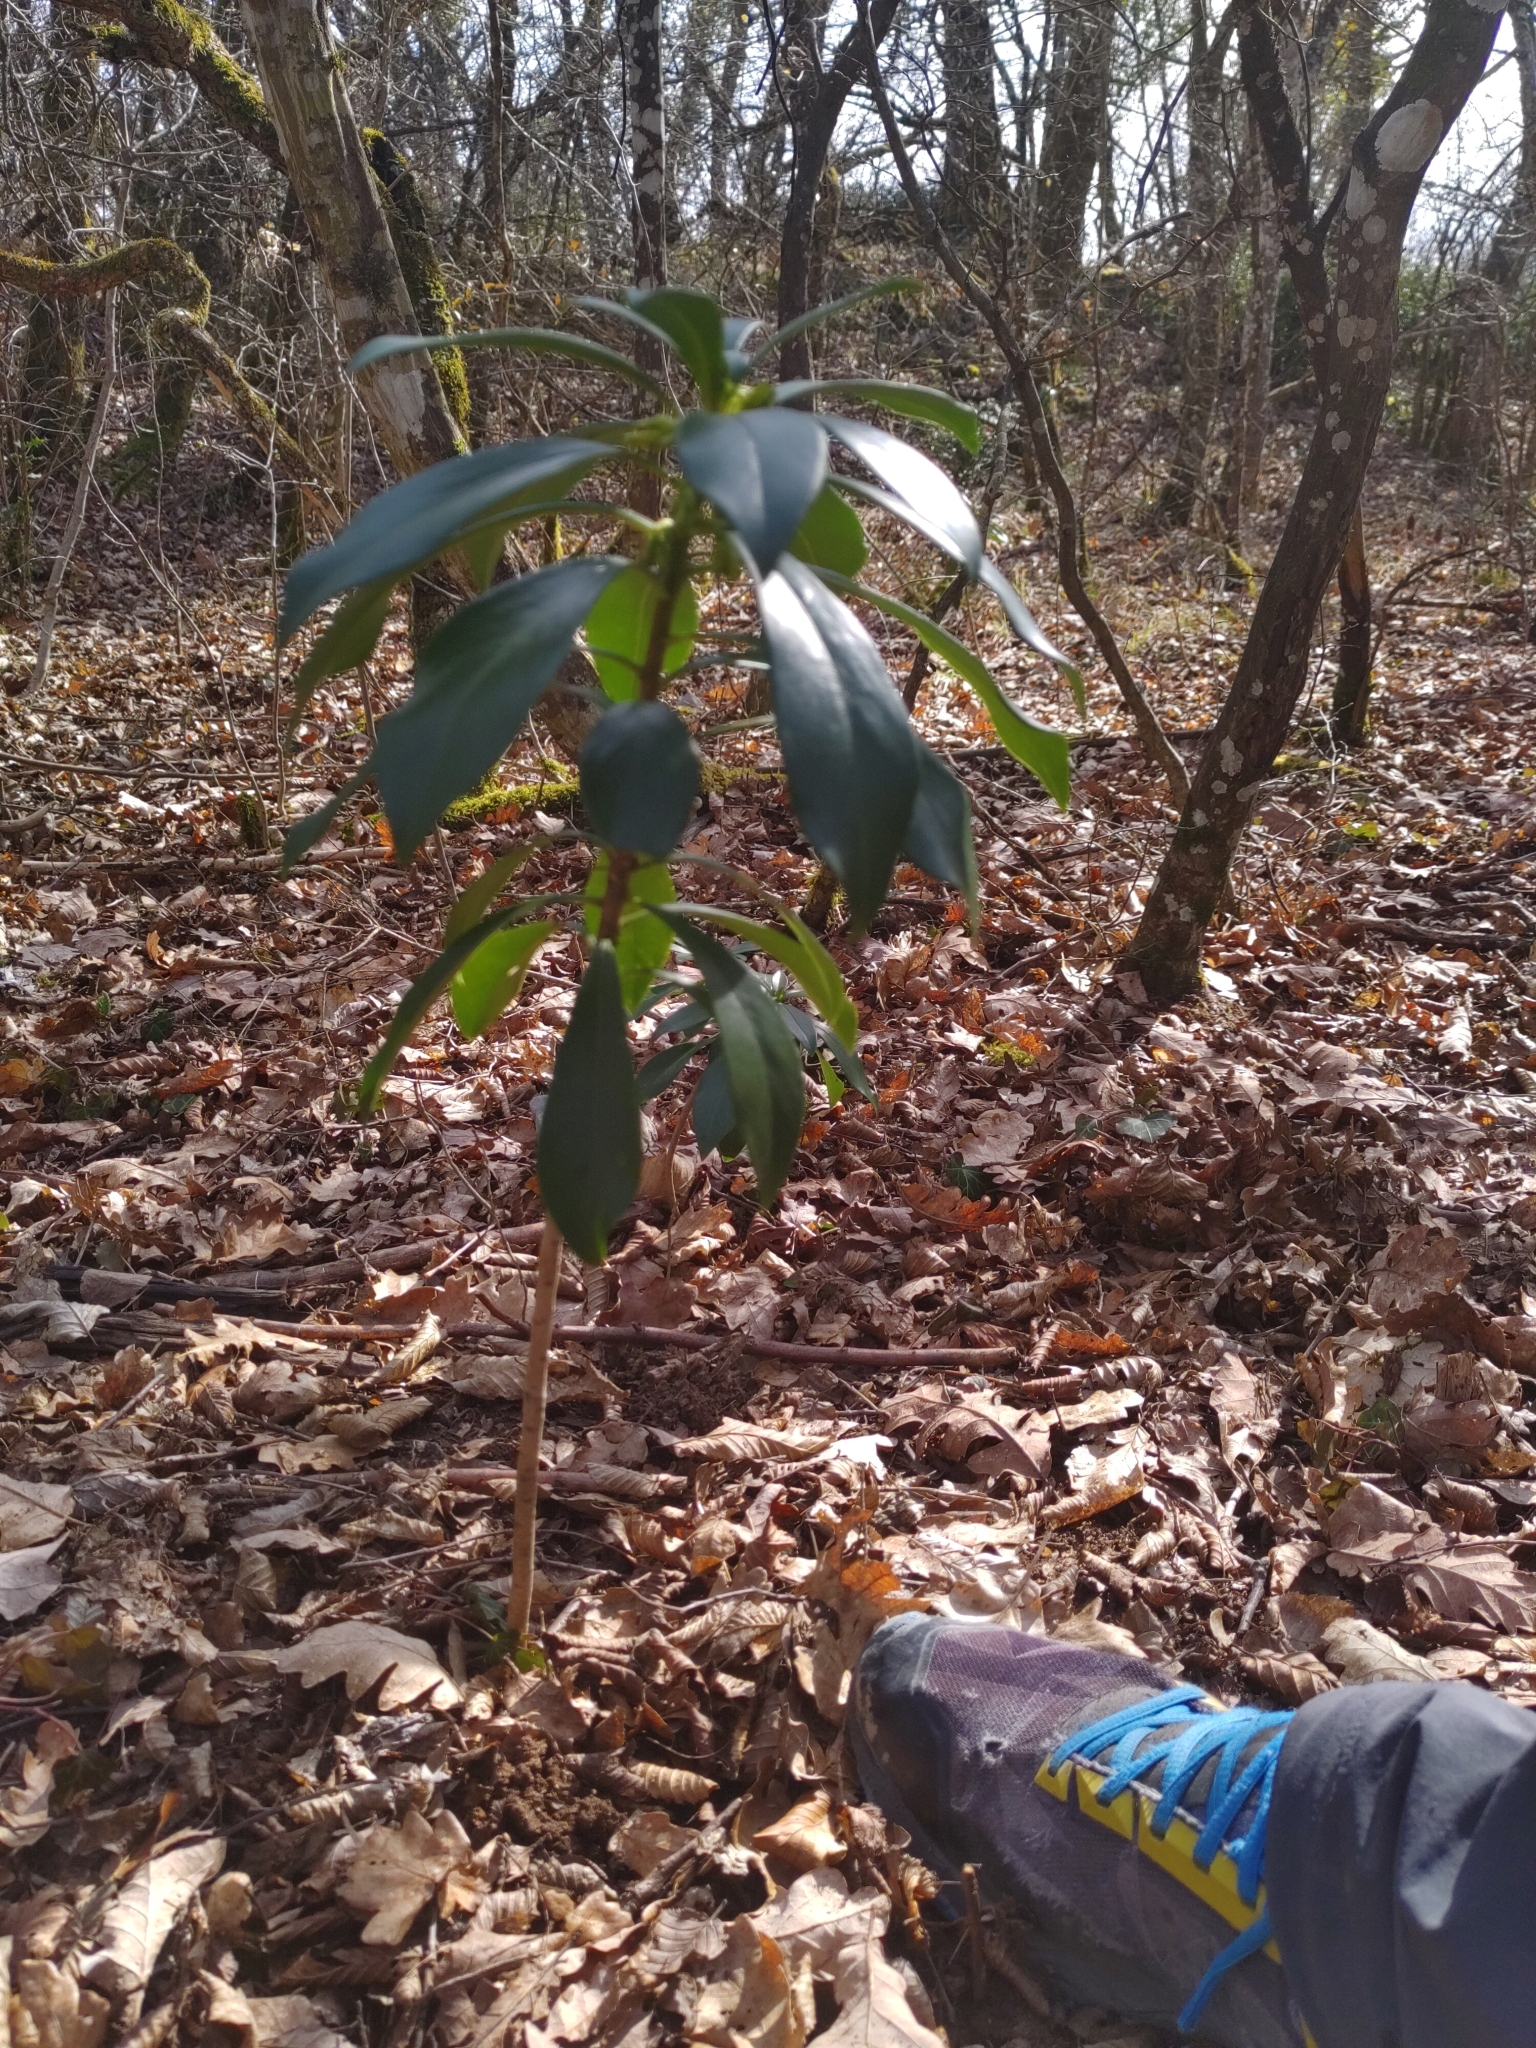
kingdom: Plantae
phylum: Tracheophyta
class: Magnoliopsida
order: Malvales
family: Thymelaeaceae
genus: Daphne
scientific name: Daphne laureola
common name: Spurge-laurel
